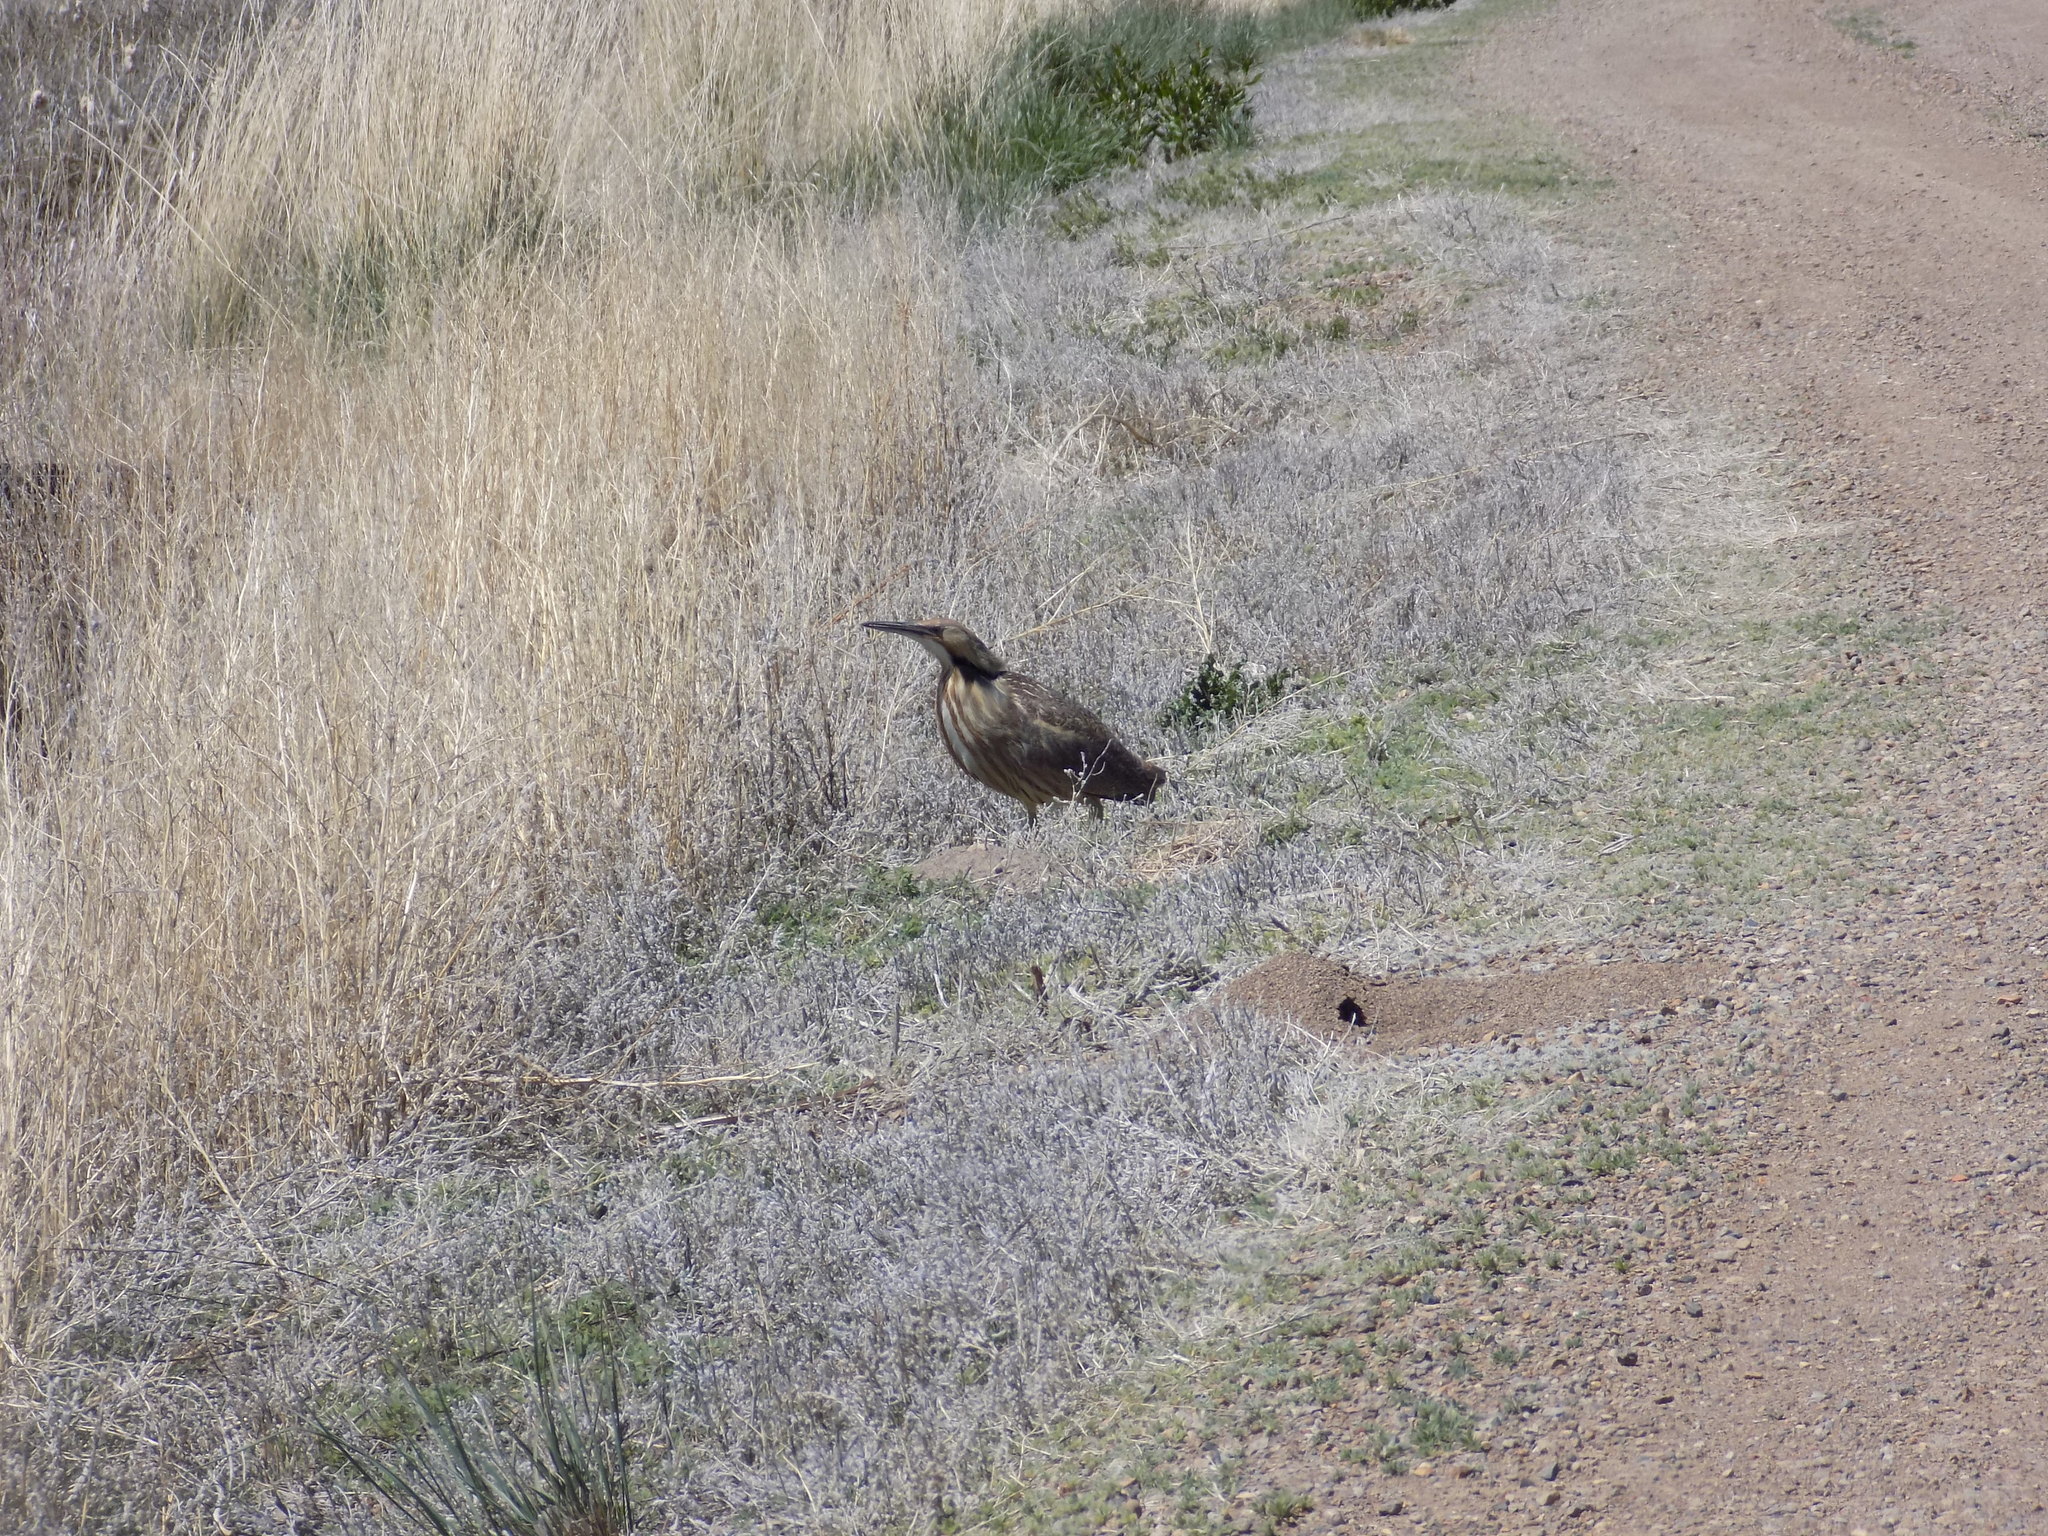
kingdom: Animalia
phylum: Chordata
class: Aves
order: Pelecaniformes
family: Ardeidae
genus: Botaurus
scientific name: Botaurus lentiginosus
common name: American bittern
